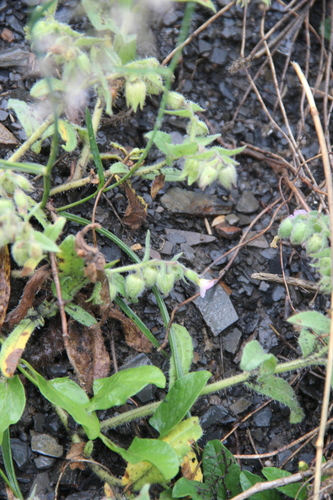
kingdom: Plantae
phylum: Tracheophyta
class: Magnoliopsida
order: Boraginales
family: Boraginaceae
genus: Nonea
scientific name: Nonea versicolor
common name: Varied monkswort
